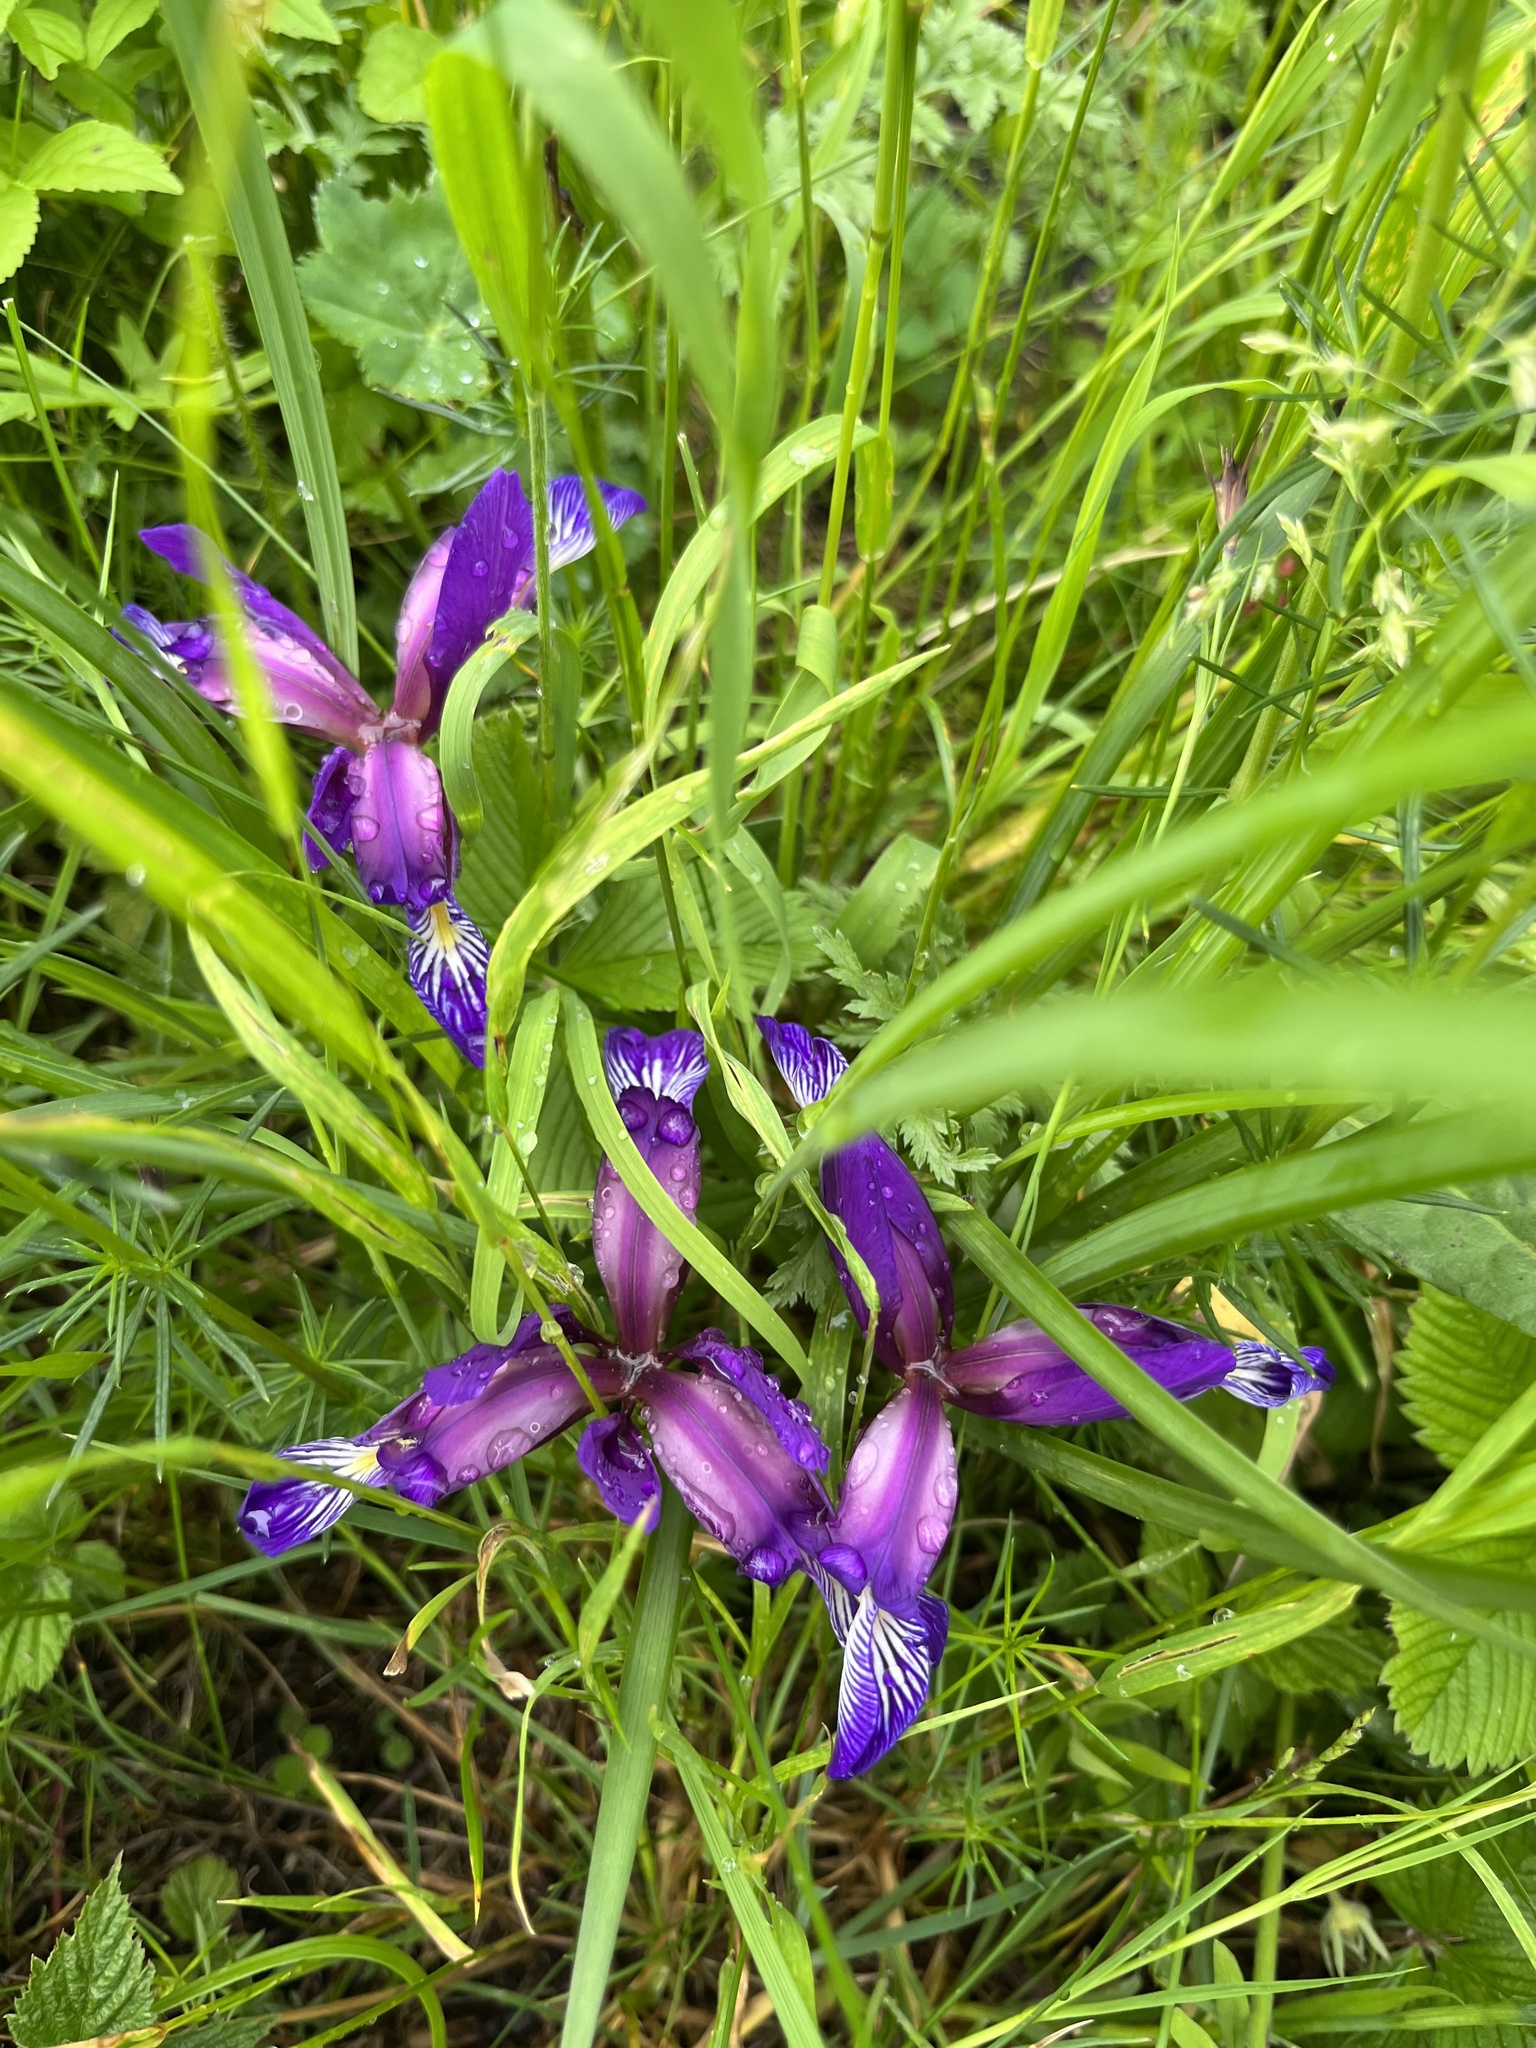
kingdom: Plantae
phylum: Tracheophyta
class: Liliopsida
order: Asparagales
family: Iridaceae
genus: Iris
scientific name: Iris graminea
